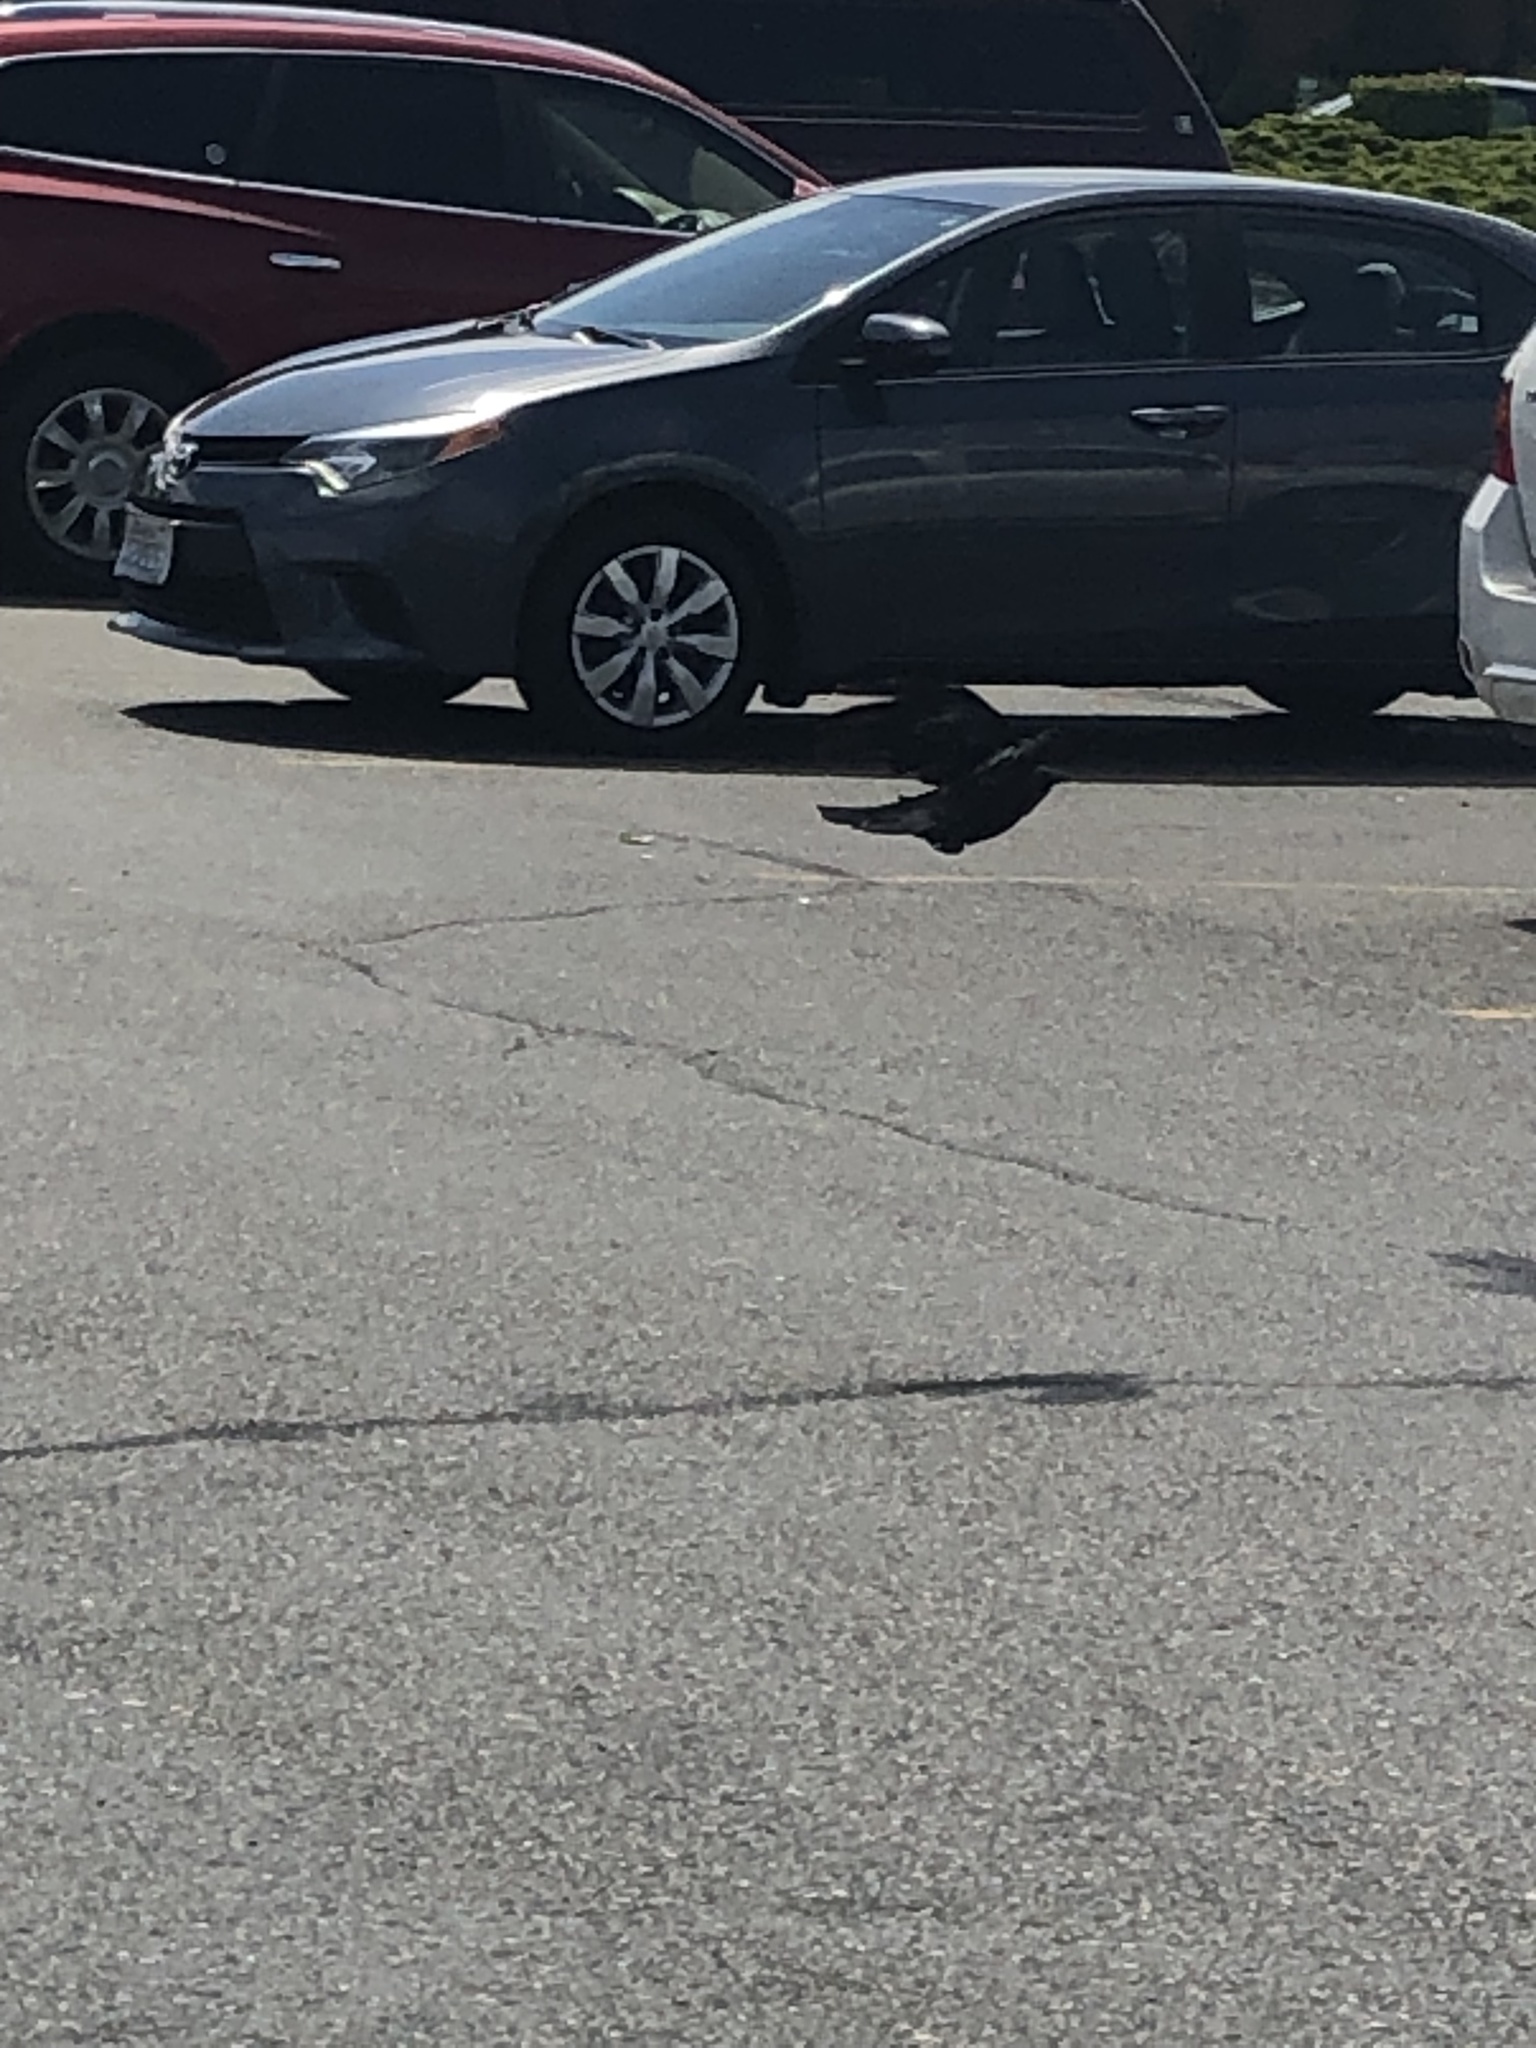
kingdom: Animalia
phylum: Chordata
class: Aves
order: Passeriformes
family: Corvidae
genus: Corvus
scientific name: Corvus brachyrhynchos
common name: American crow
